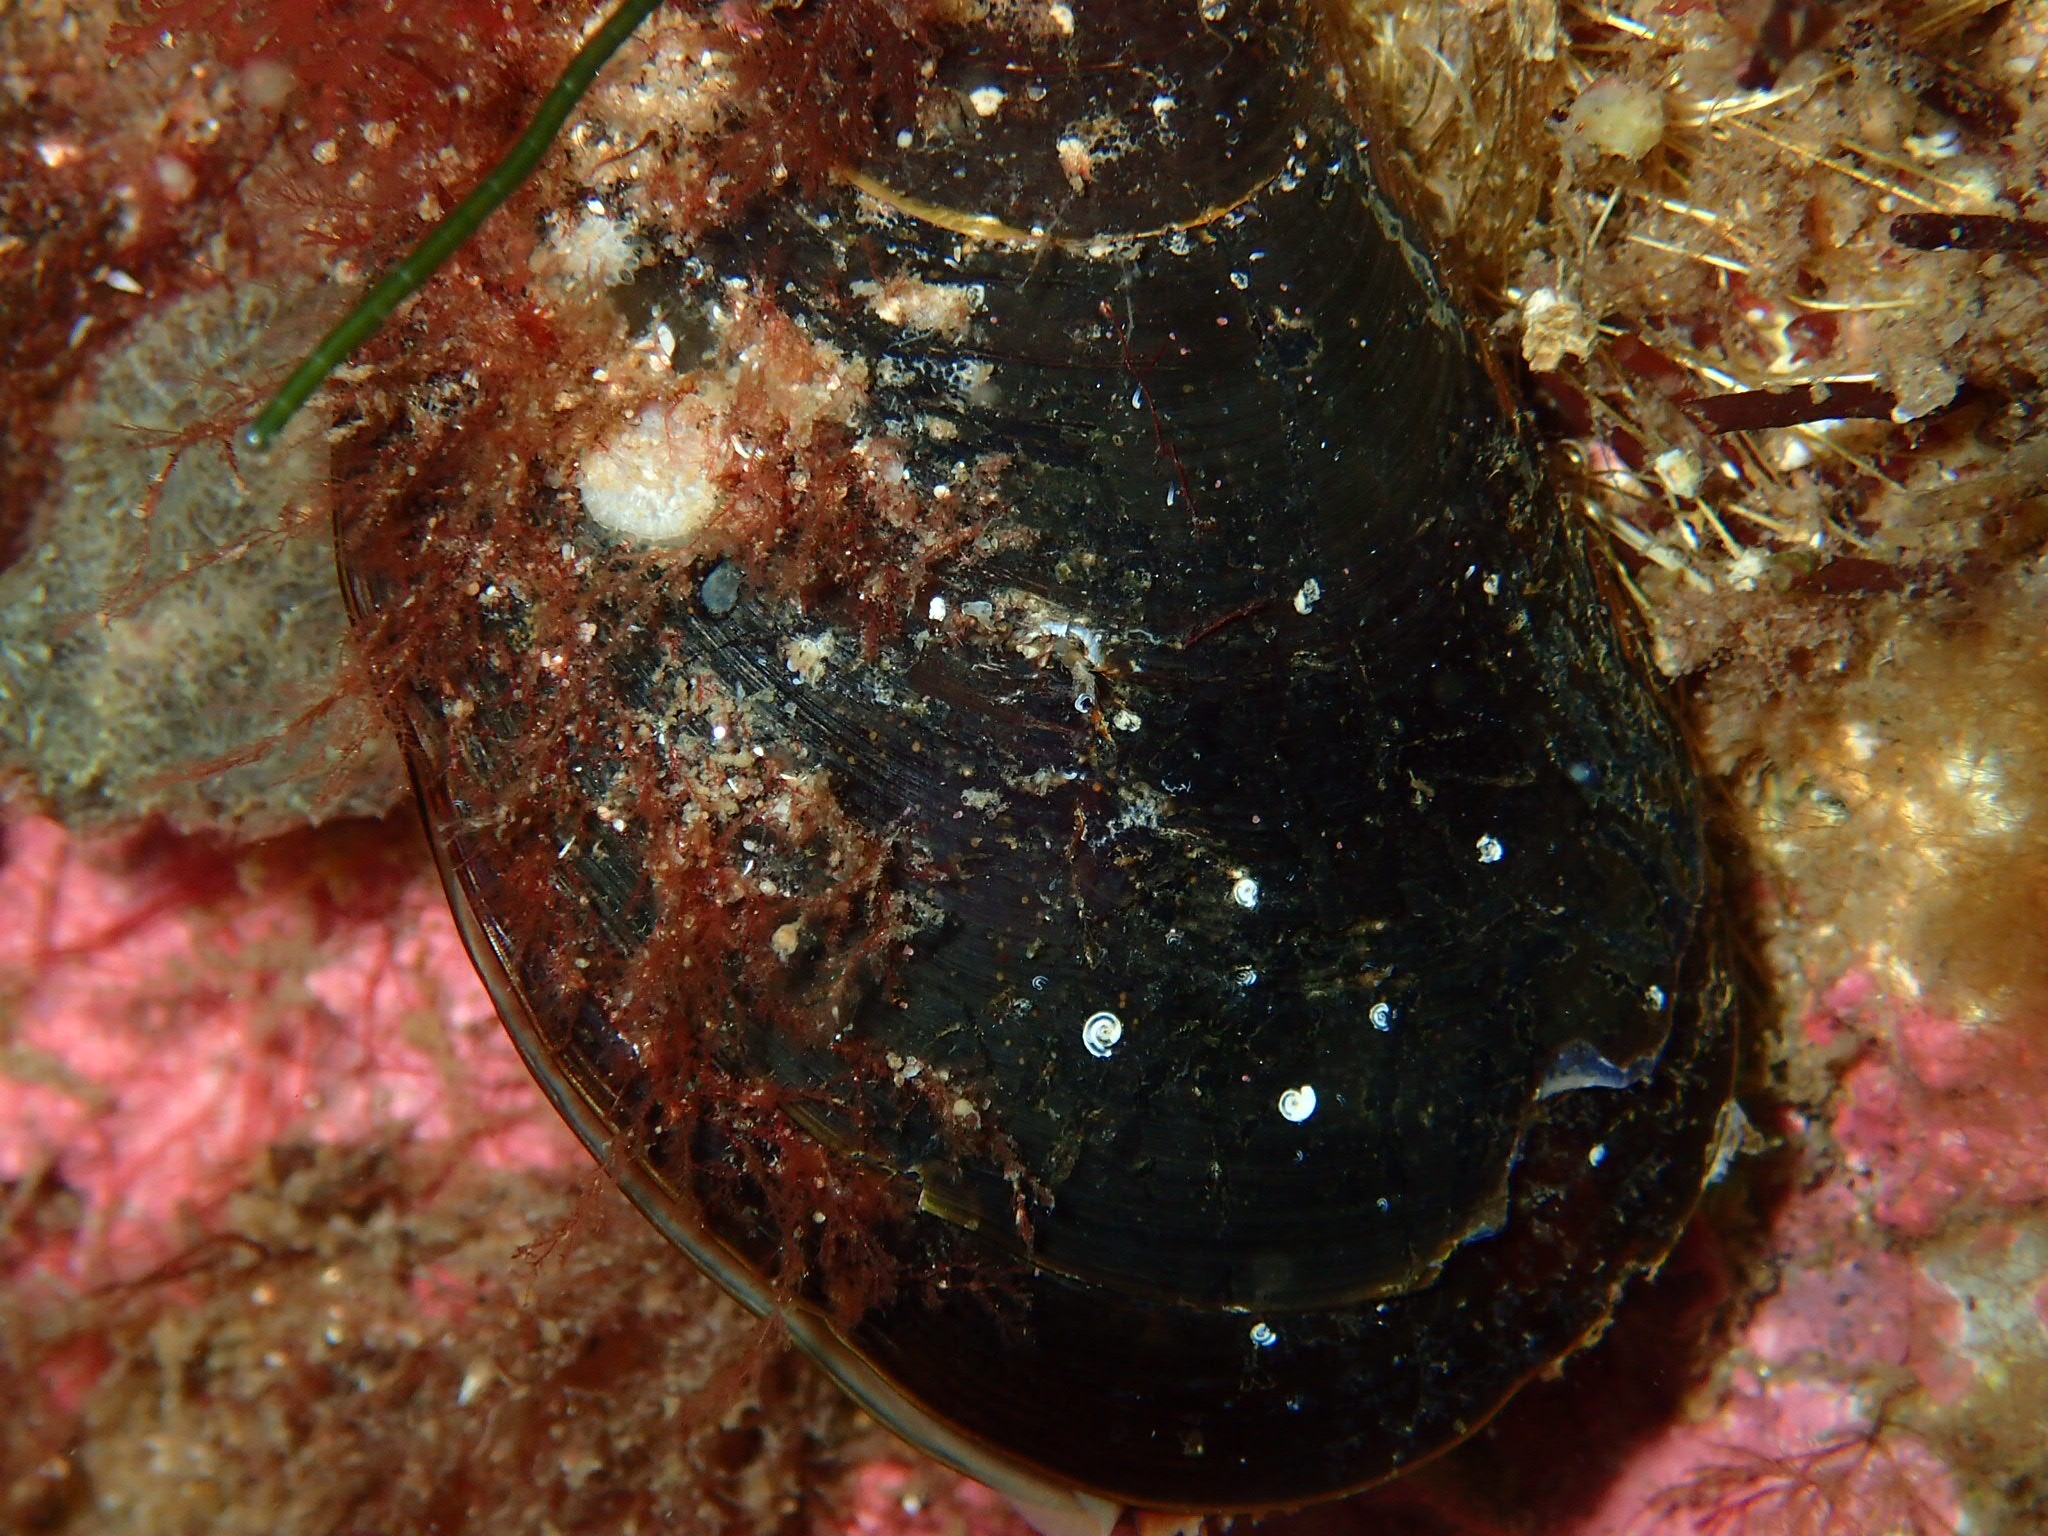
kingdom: Animalia
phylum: Mollusca
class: Bivalvia
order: Mytilida
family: Mytilidae
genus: Mytilus
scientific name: Mytilus edulis
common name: Blue mussel
